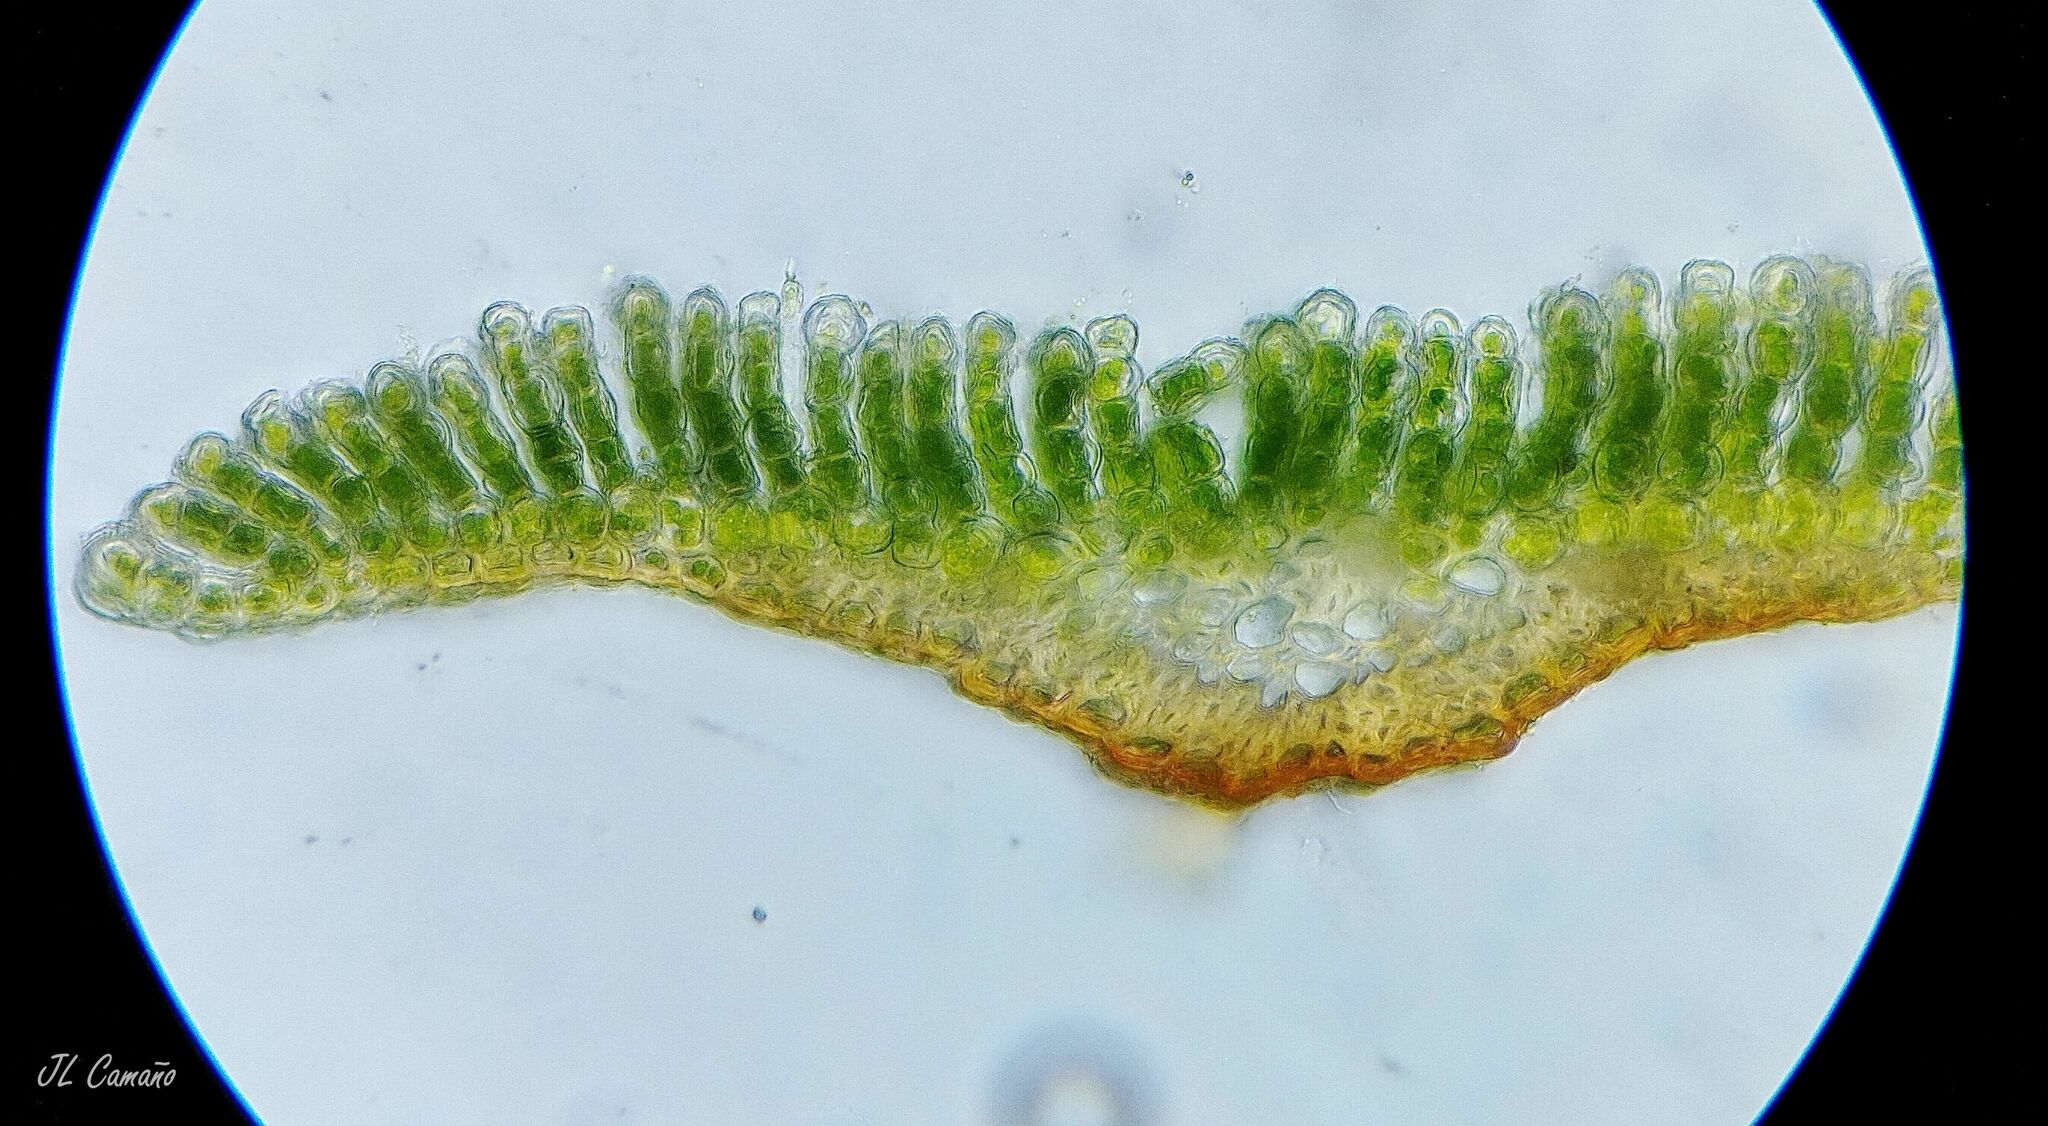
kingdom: Plantae
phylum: Bryophyta
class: Polytrichopsida
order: Polytrichales
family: Polytrichaceae
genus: Pogonatum
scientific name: Pogonatum aloides
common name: Aloe haircap
